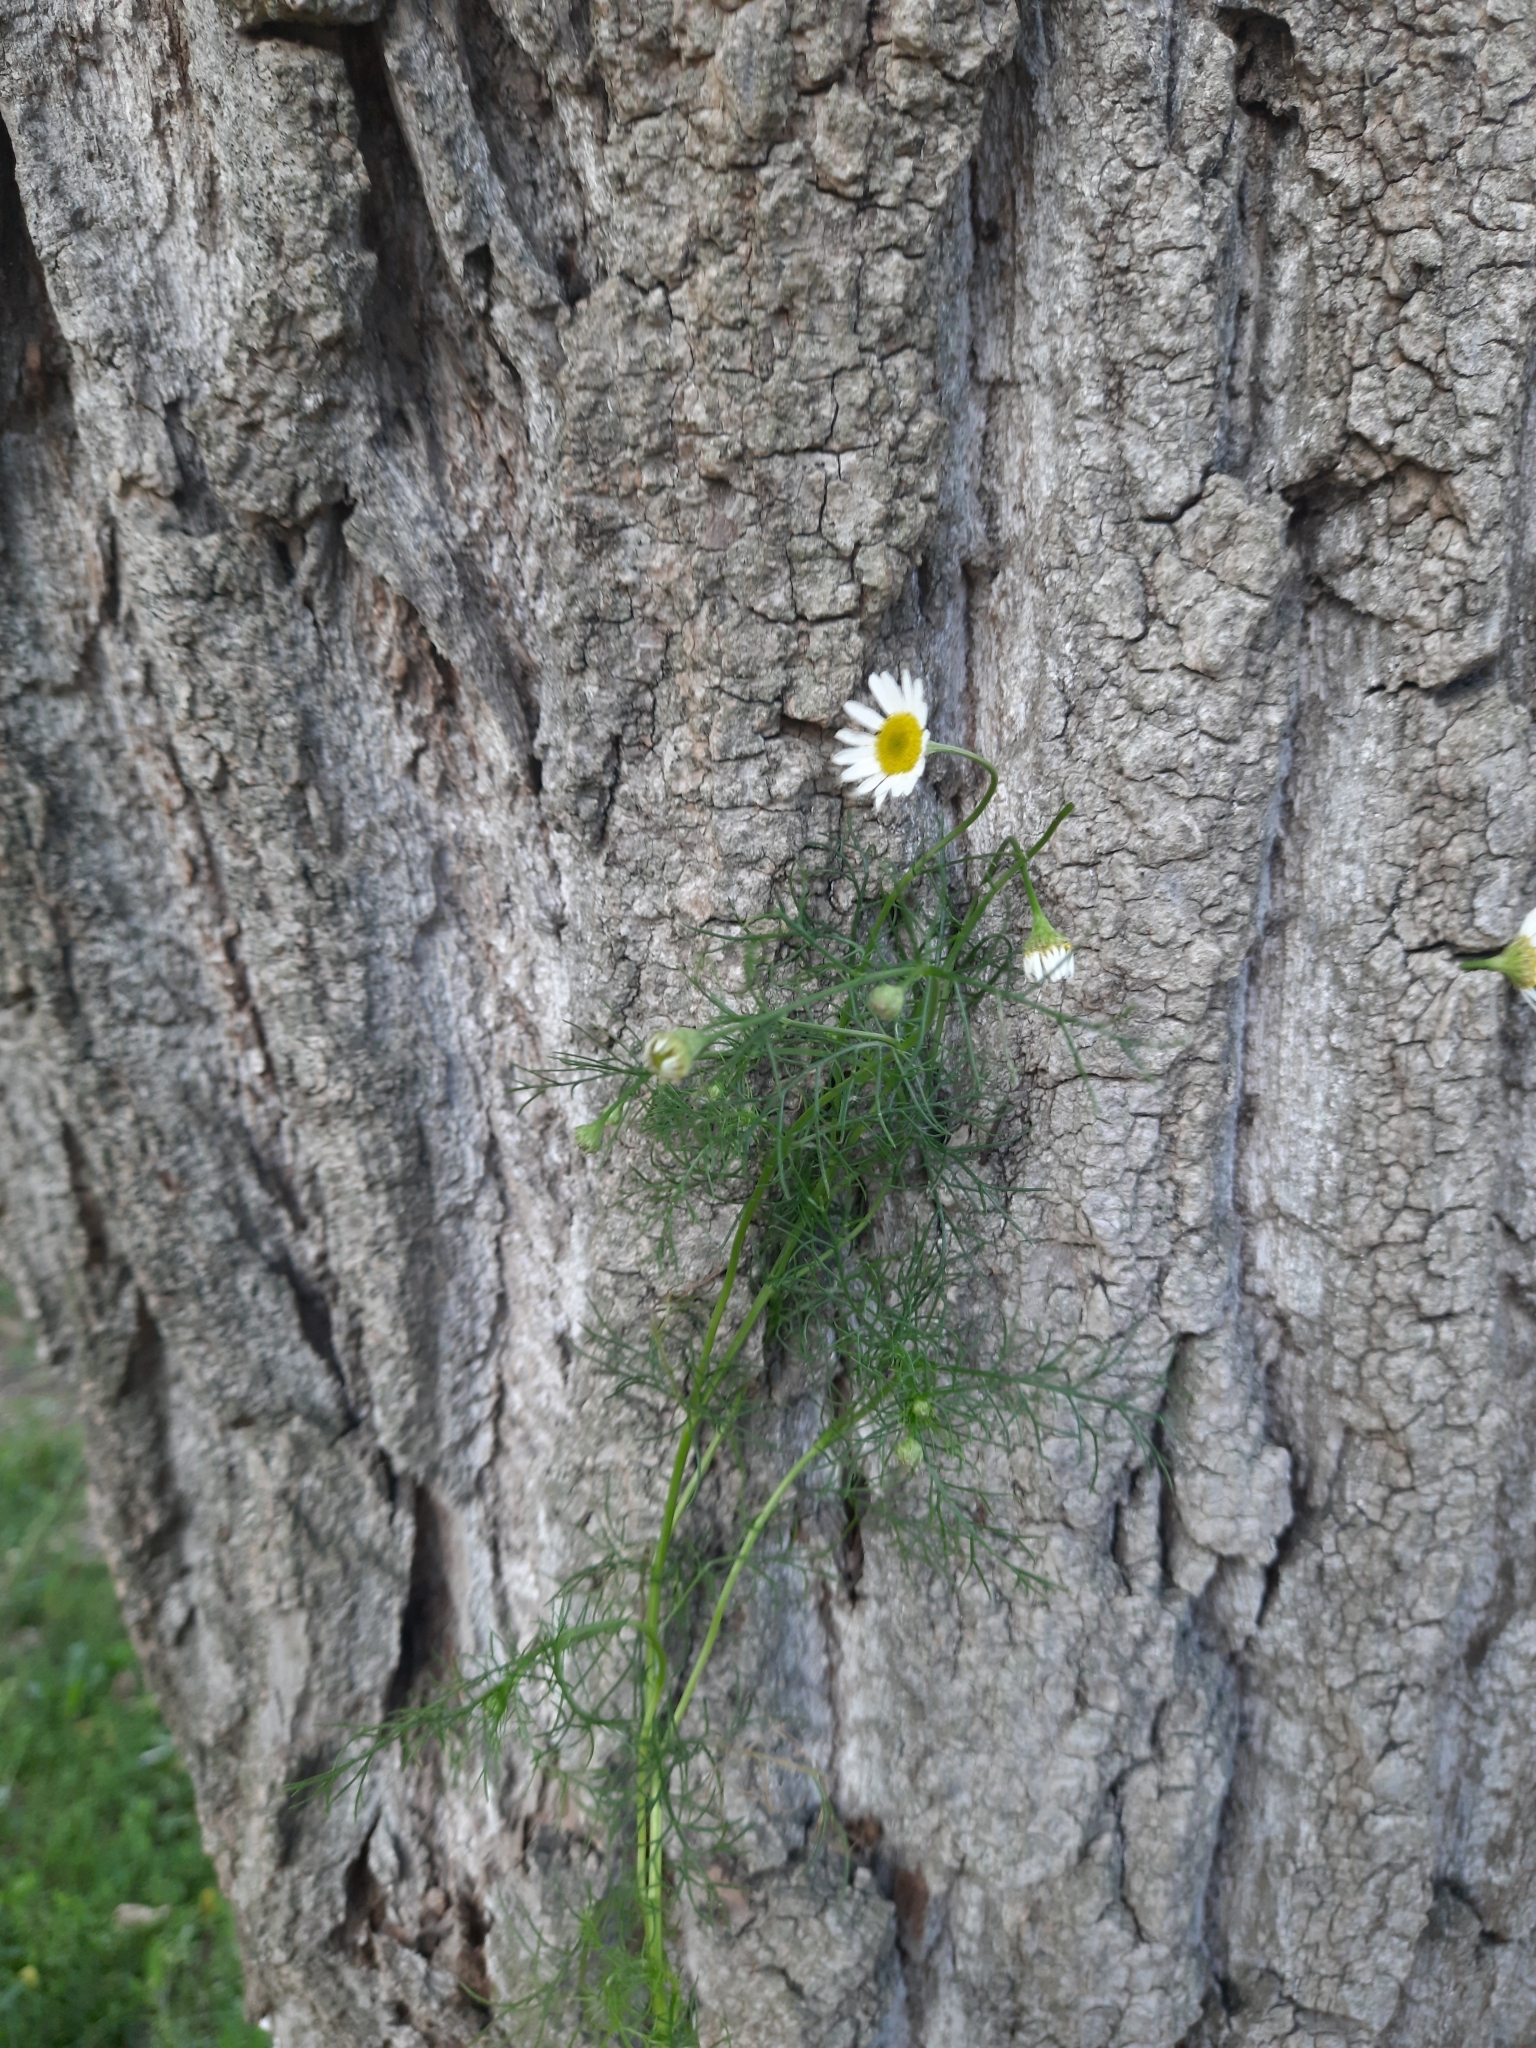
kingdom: Plantae
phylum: Tracheophyta
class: Magnoliopsida
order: Asterales
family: Asteraceae
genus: Tripleurospermum
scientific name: Tripleurospermum inodorum
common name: Scentless mayweed
